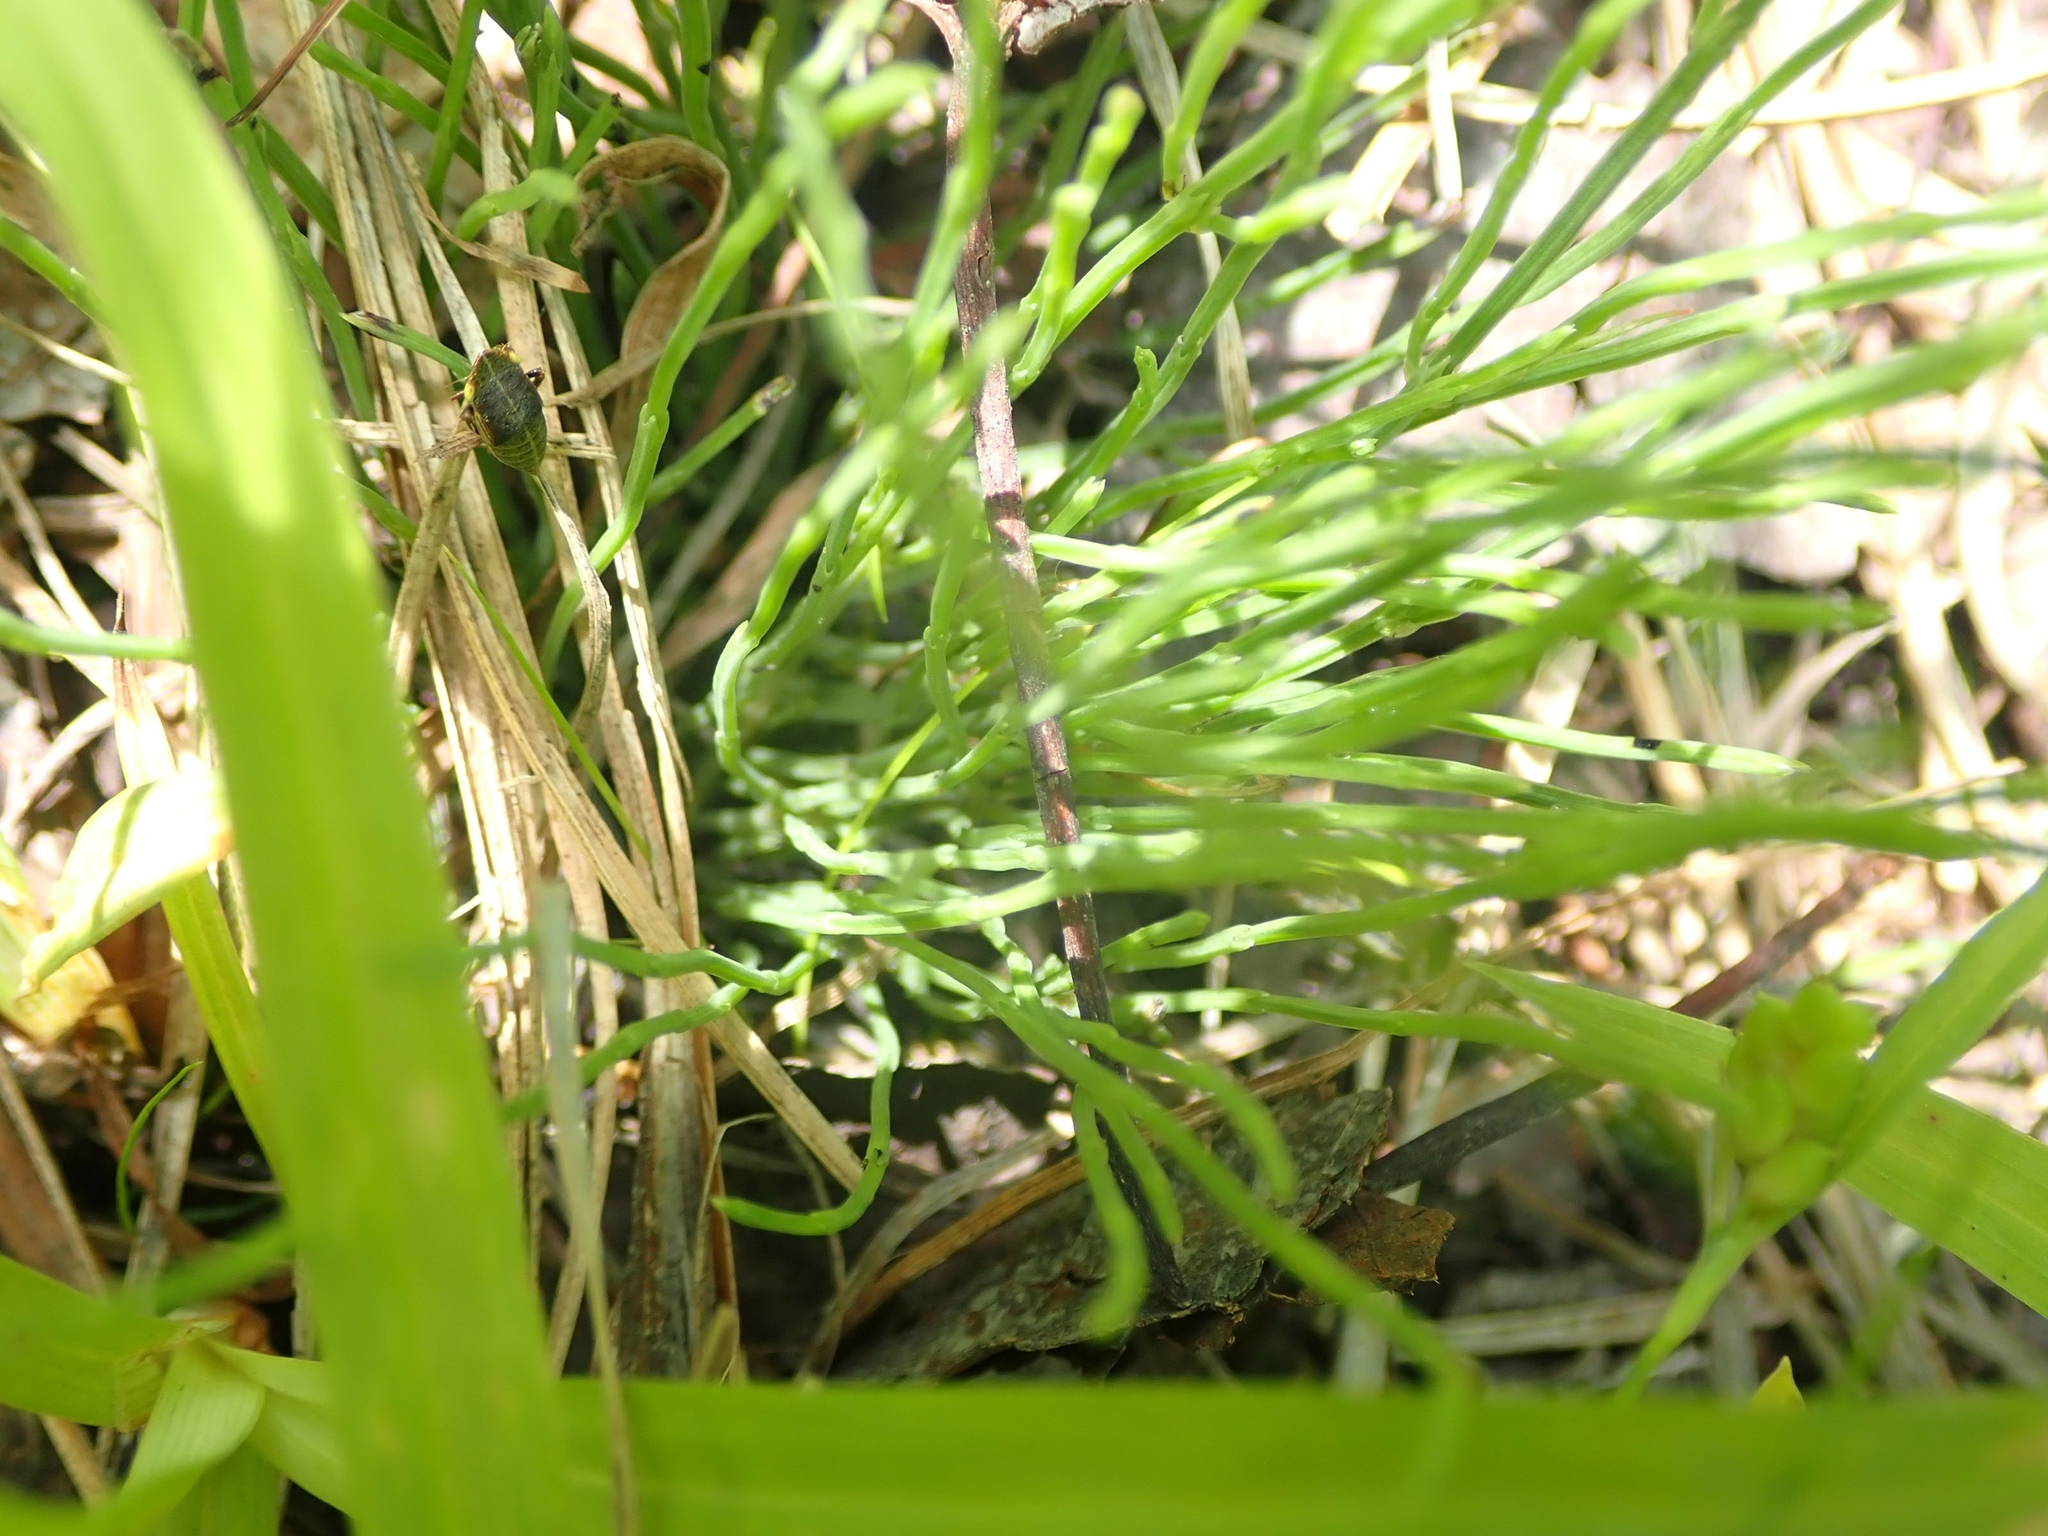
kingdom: Plantae
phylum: Tracheophyta
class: Polypodiopsida
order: Equisetales
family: Equisetaceae
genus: Equisetum
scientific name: Equisetum arvense
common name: Field horsetail
